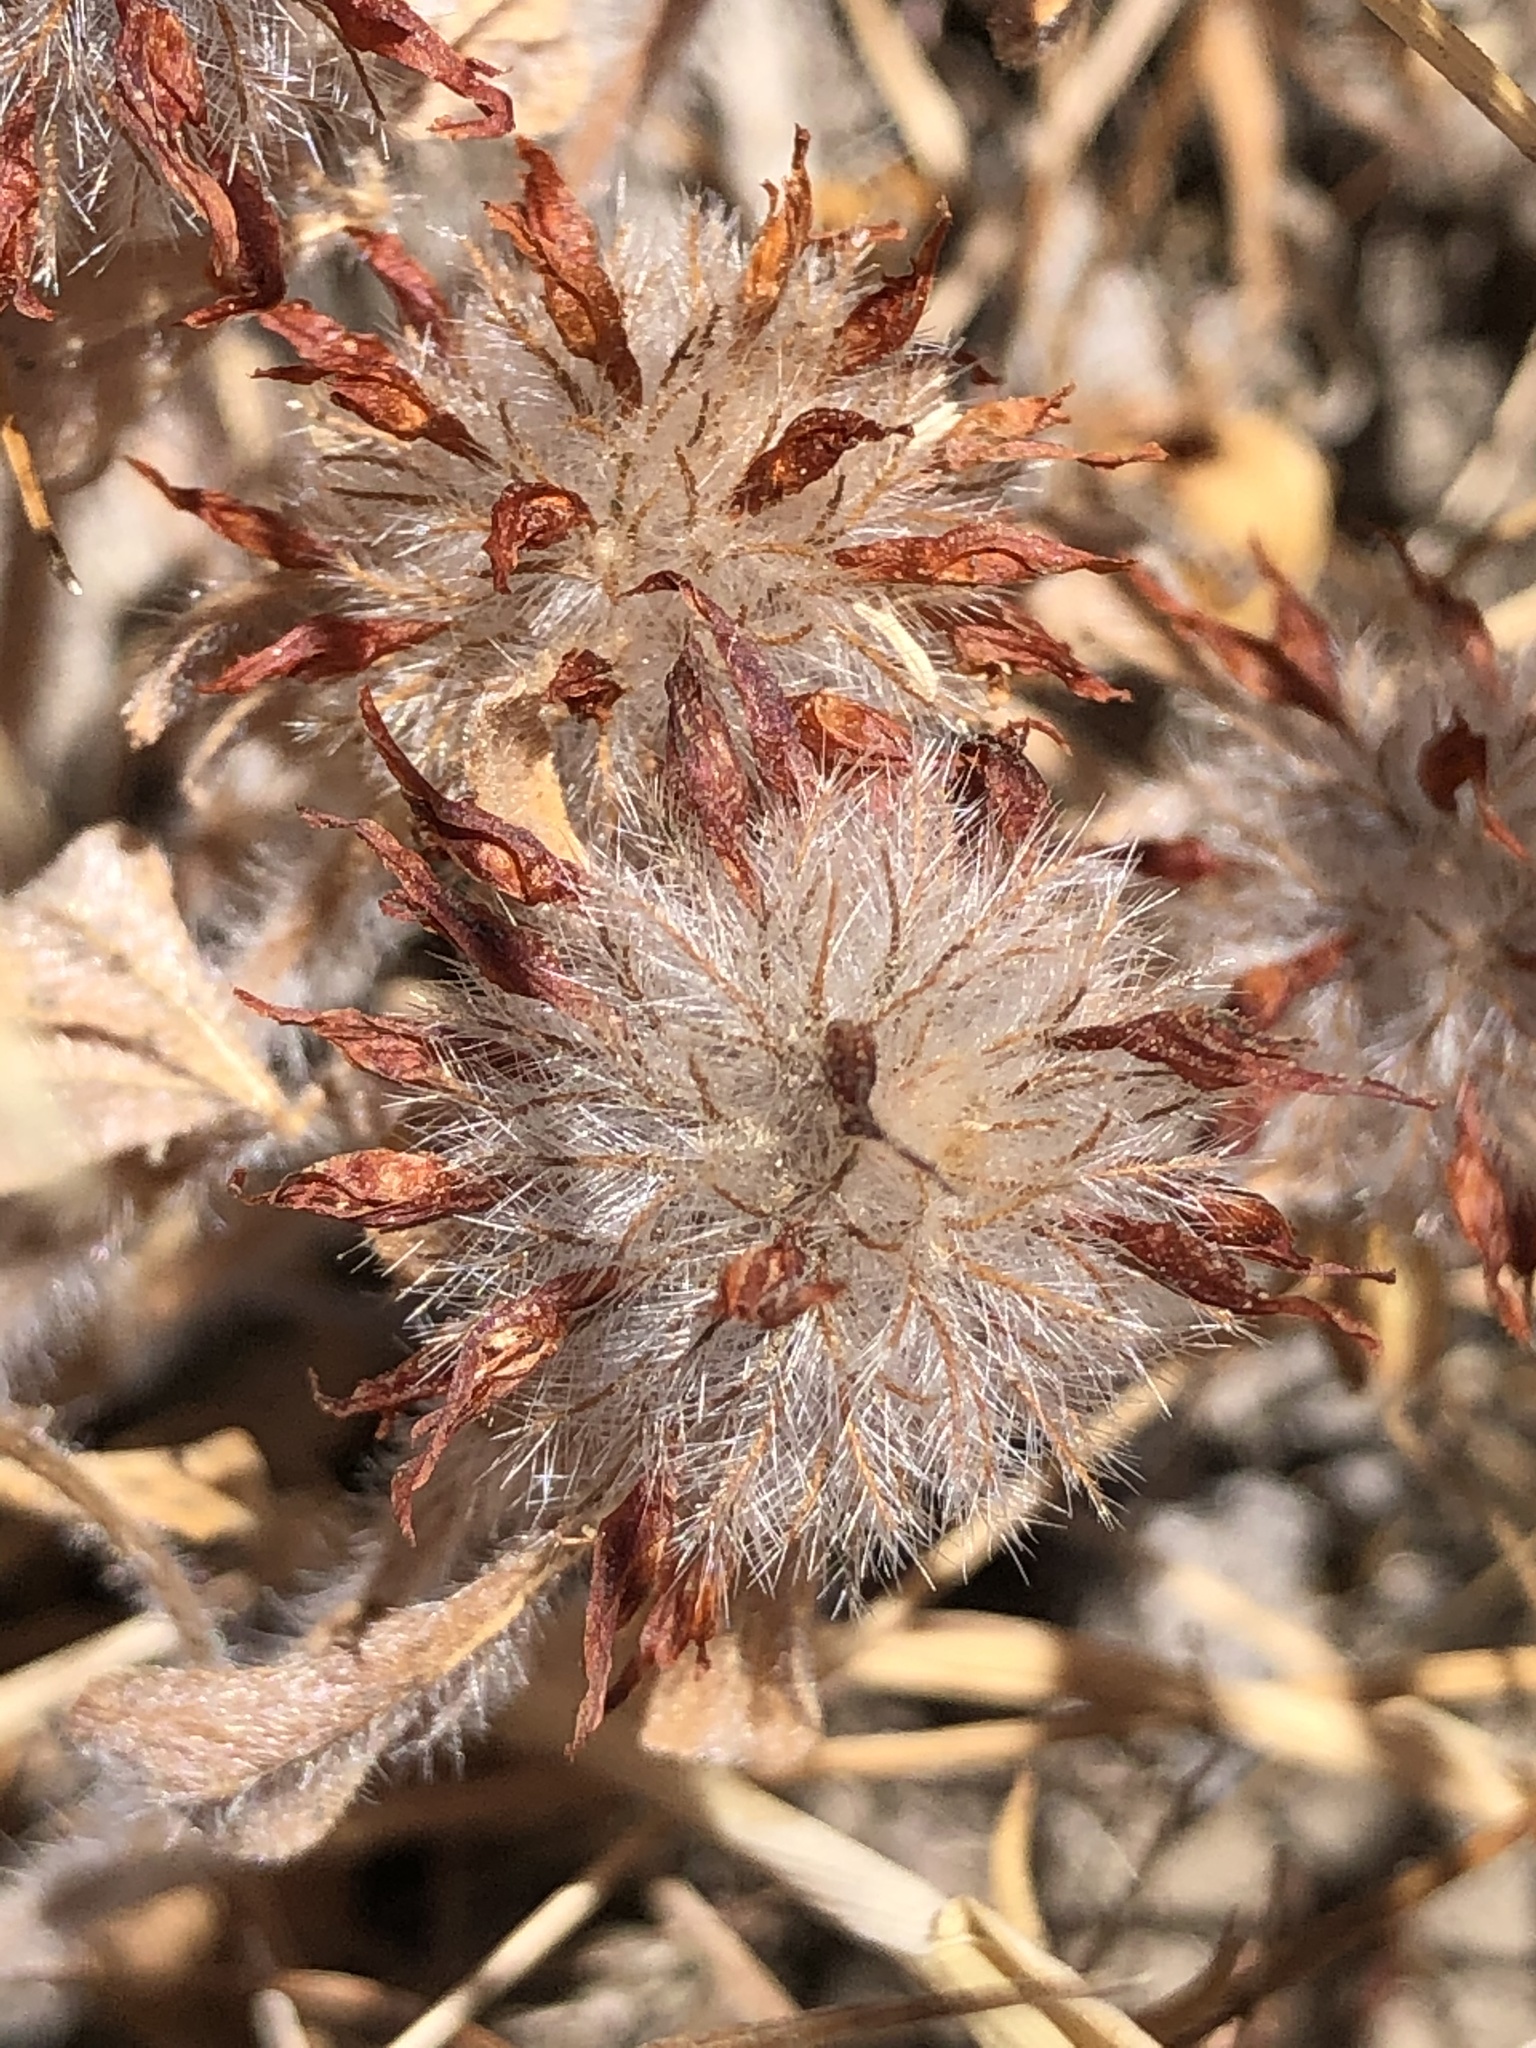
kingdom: Plantae
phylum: Tracheophyta
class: Magnoliopsida
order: Fabales
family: Fabaceae
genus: Trifolium
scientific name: Trifolium hirtum
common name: Rose clover
